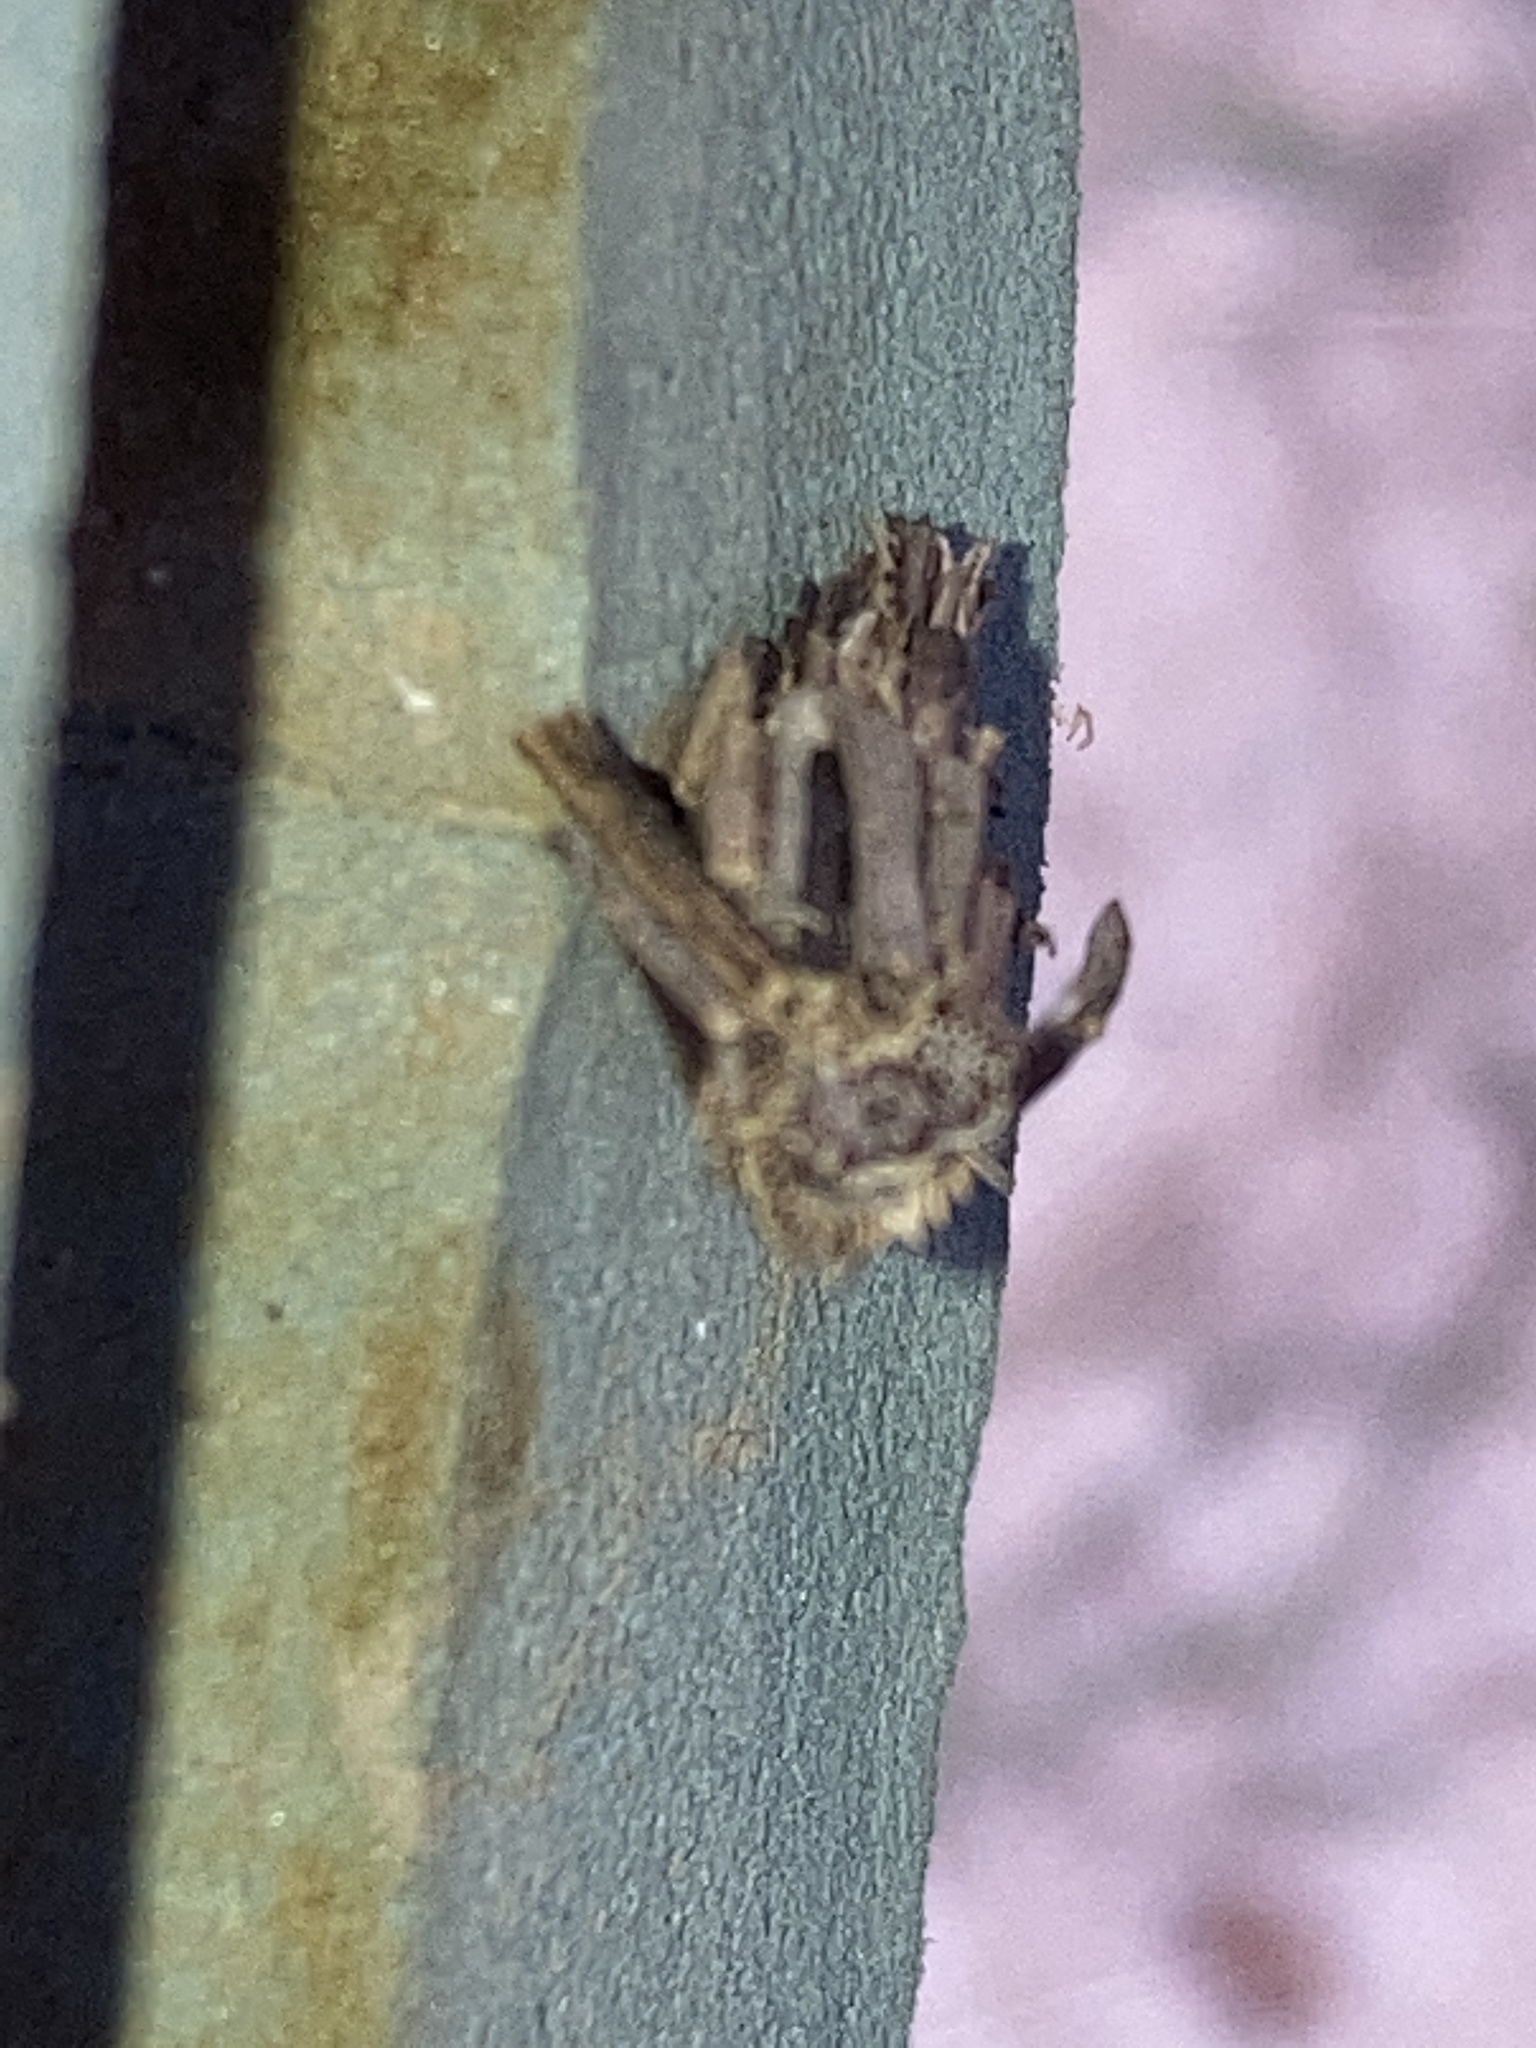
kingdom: Animalia
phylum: Arthropoda
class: Insecta
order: Lepidoptera
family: Psychidae
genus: Psyche
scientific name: Psyche casta
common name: Common sweep
